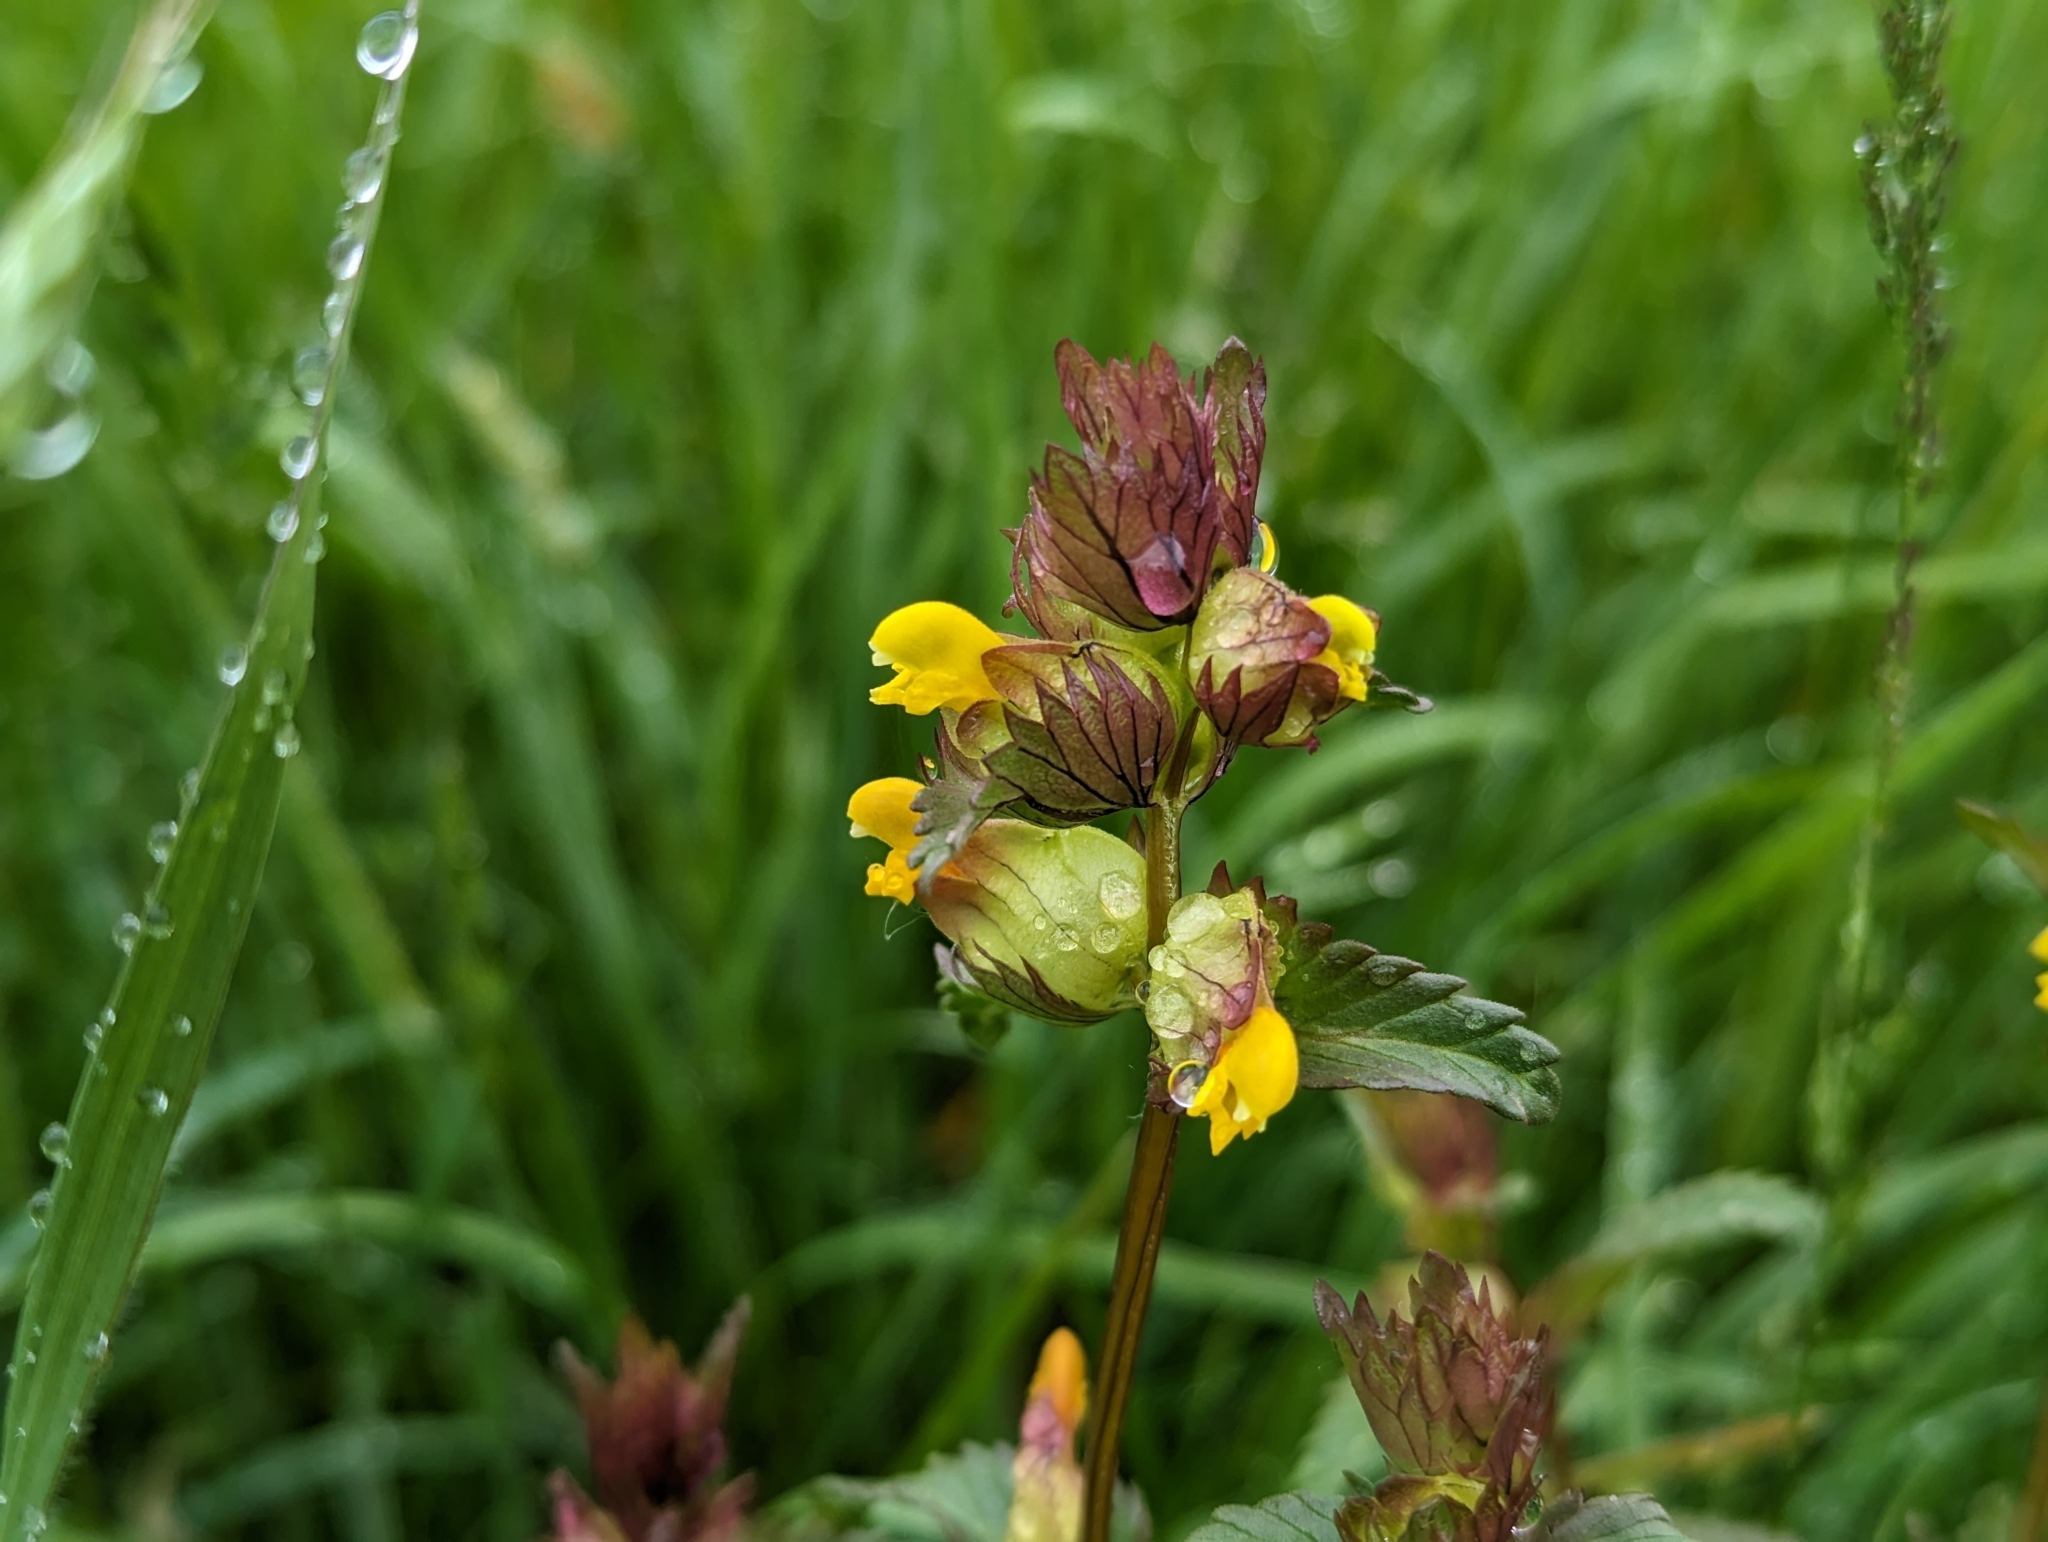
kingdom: Plantae
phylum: Tracheophyta
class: Magnoliopsida
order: Lamiales
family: Orobanchaceae
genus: Rhinanthus
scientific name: Rhinanthus minor
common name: Yellow-rattle
